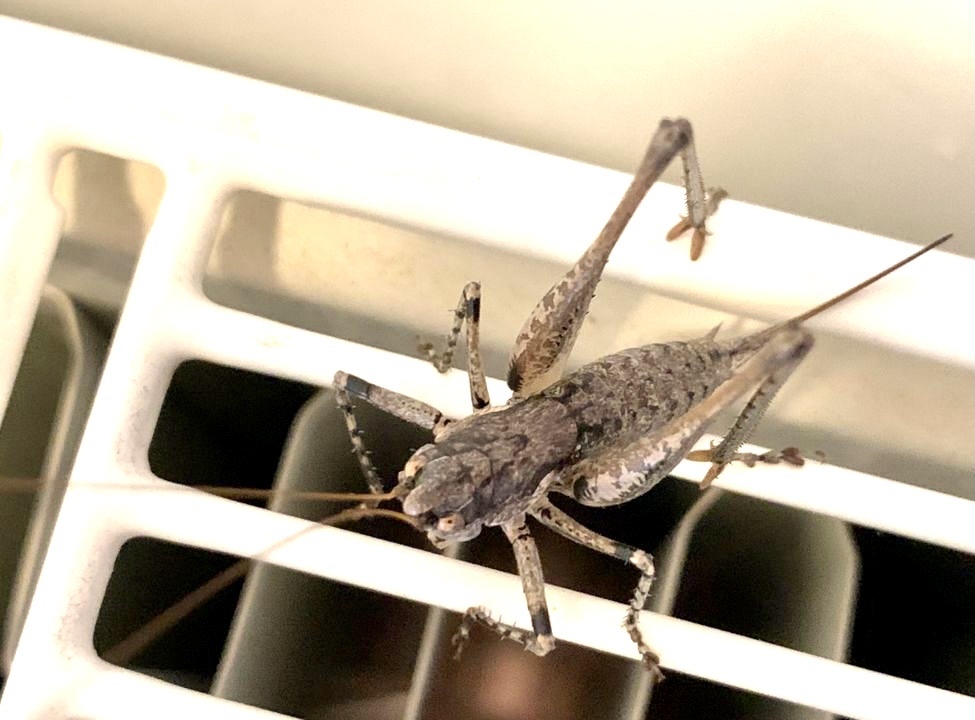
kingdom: Animalia
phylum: Arthropoda
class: Insecta
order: Orthoptera
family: Tettigoniidae
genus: Rhacocleis
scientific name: Rhacocleis
